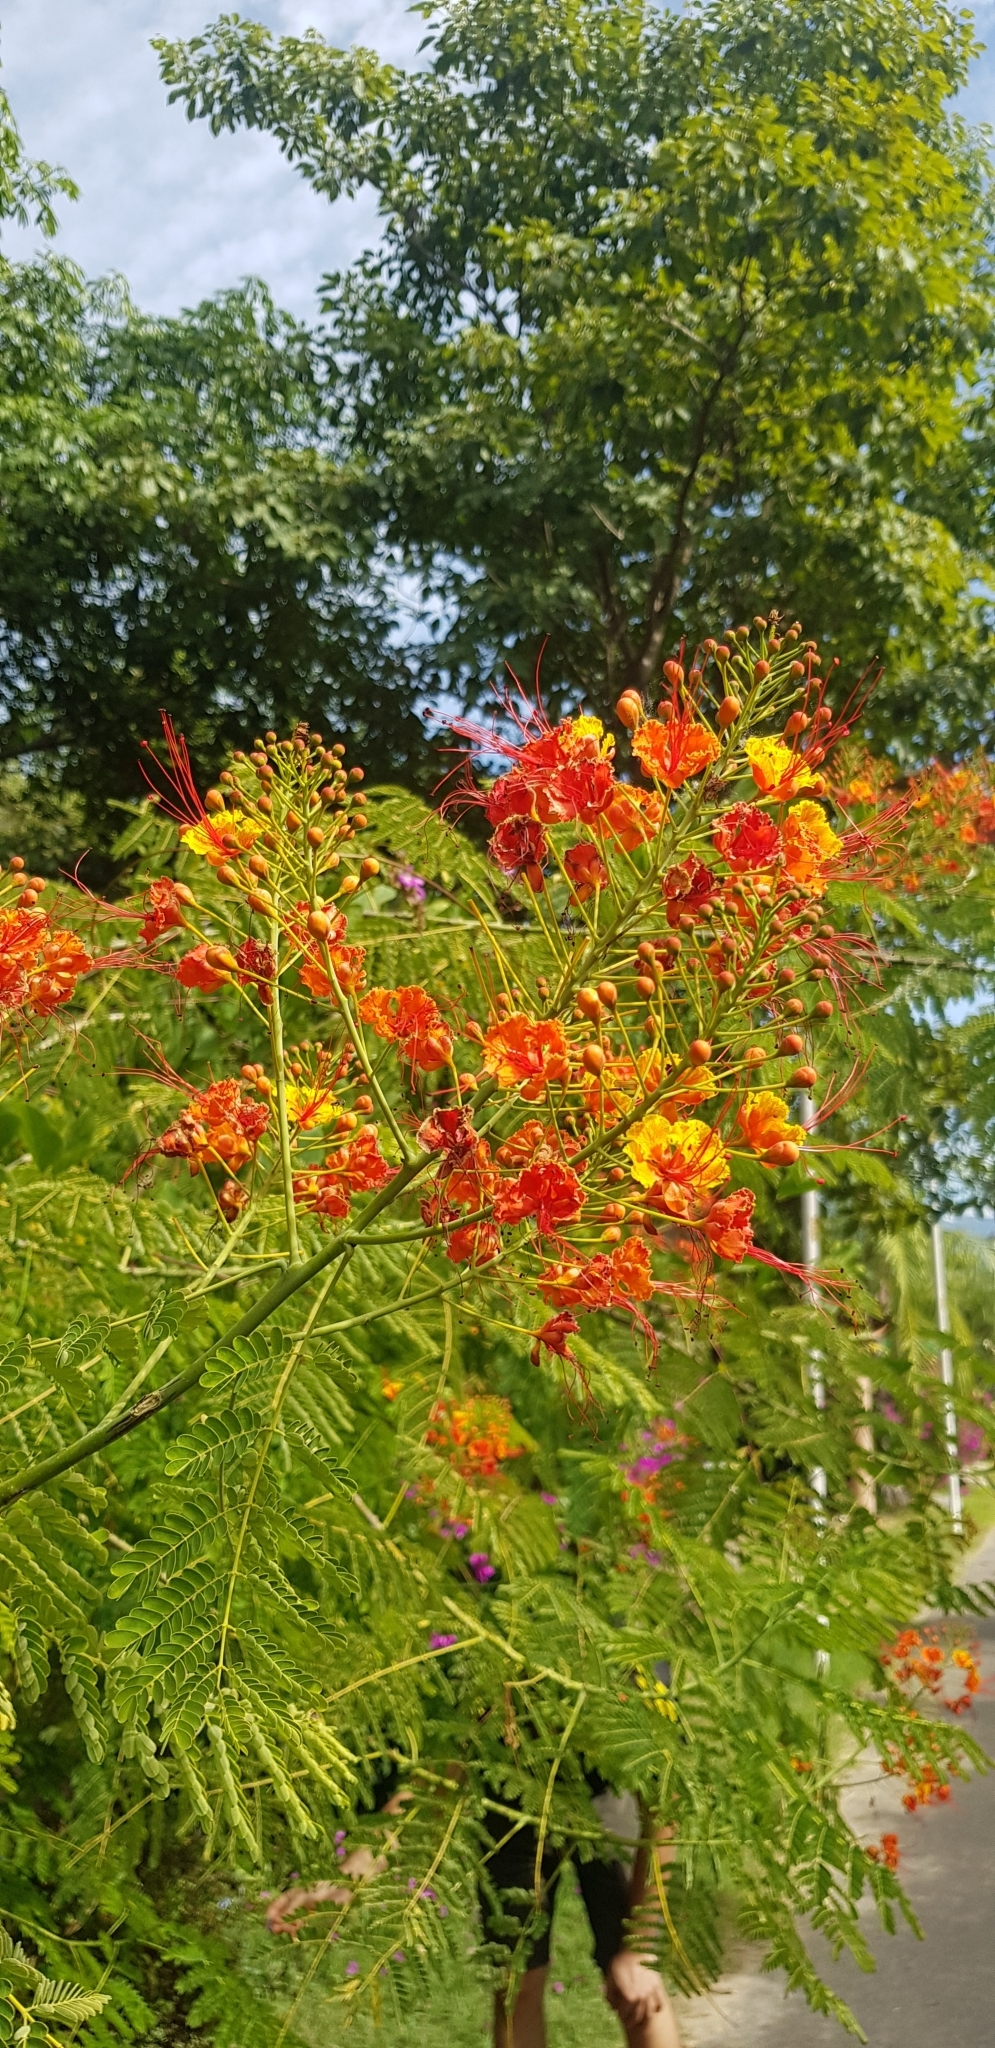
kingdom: Plantae
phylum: Tracheophyta
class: Magnoliopsida
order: Fabales
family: Fabaceae
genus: Caesalpinia
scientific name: Caesalpinia pulcherrima
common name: Pride-of-barbados
